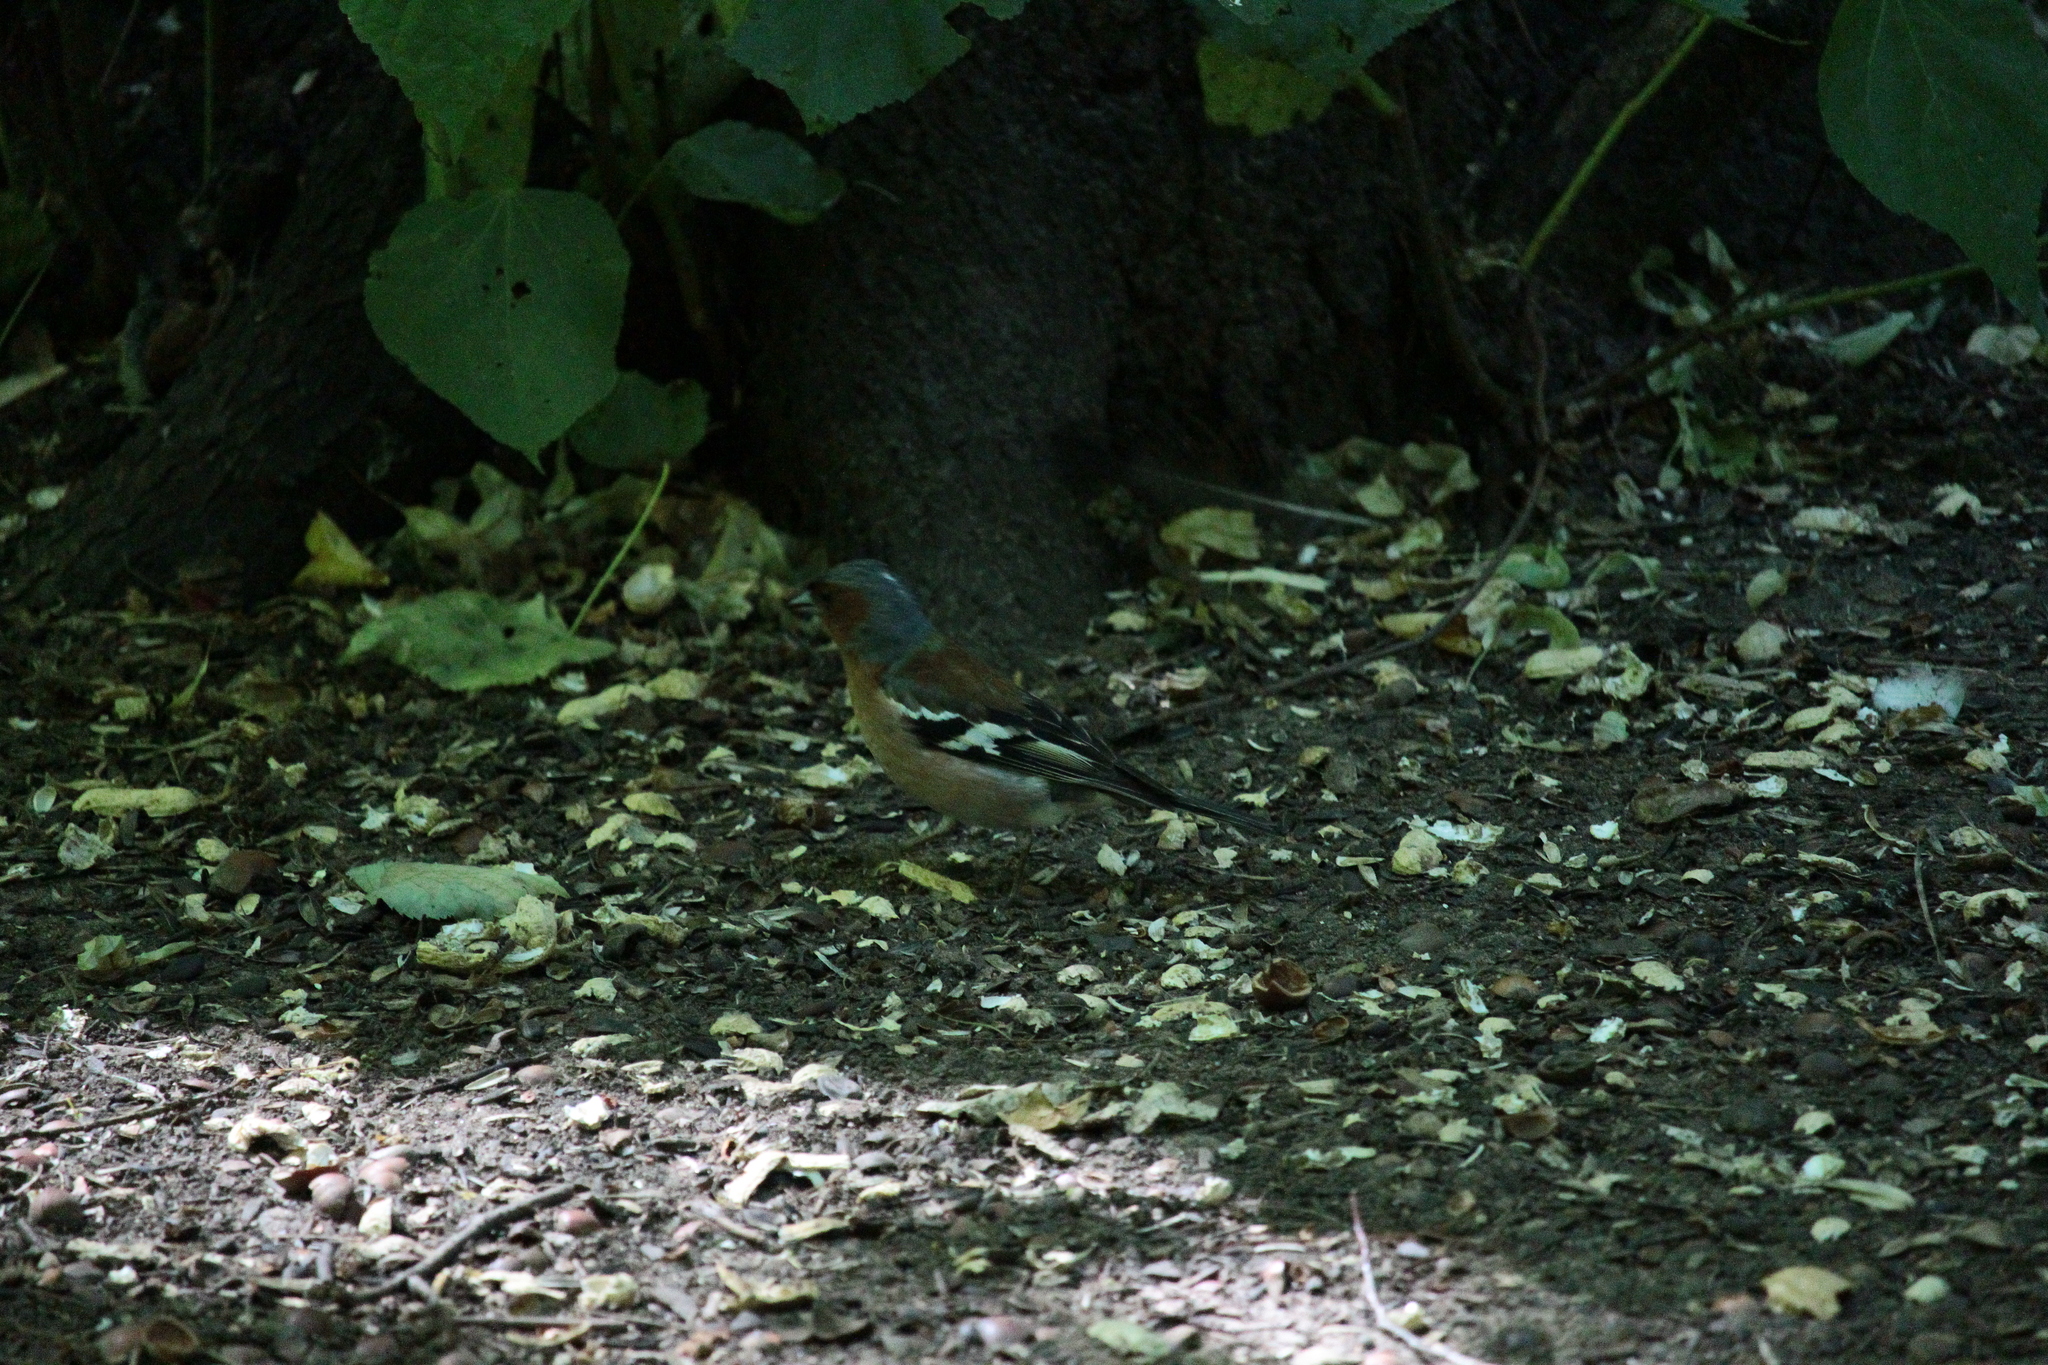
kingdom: Animalia
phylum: Chordata
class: Aves
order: Passeriformes
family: Fringillidae
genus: Fringilla
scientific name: Fringilla coelebs
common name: Common chaffinch
